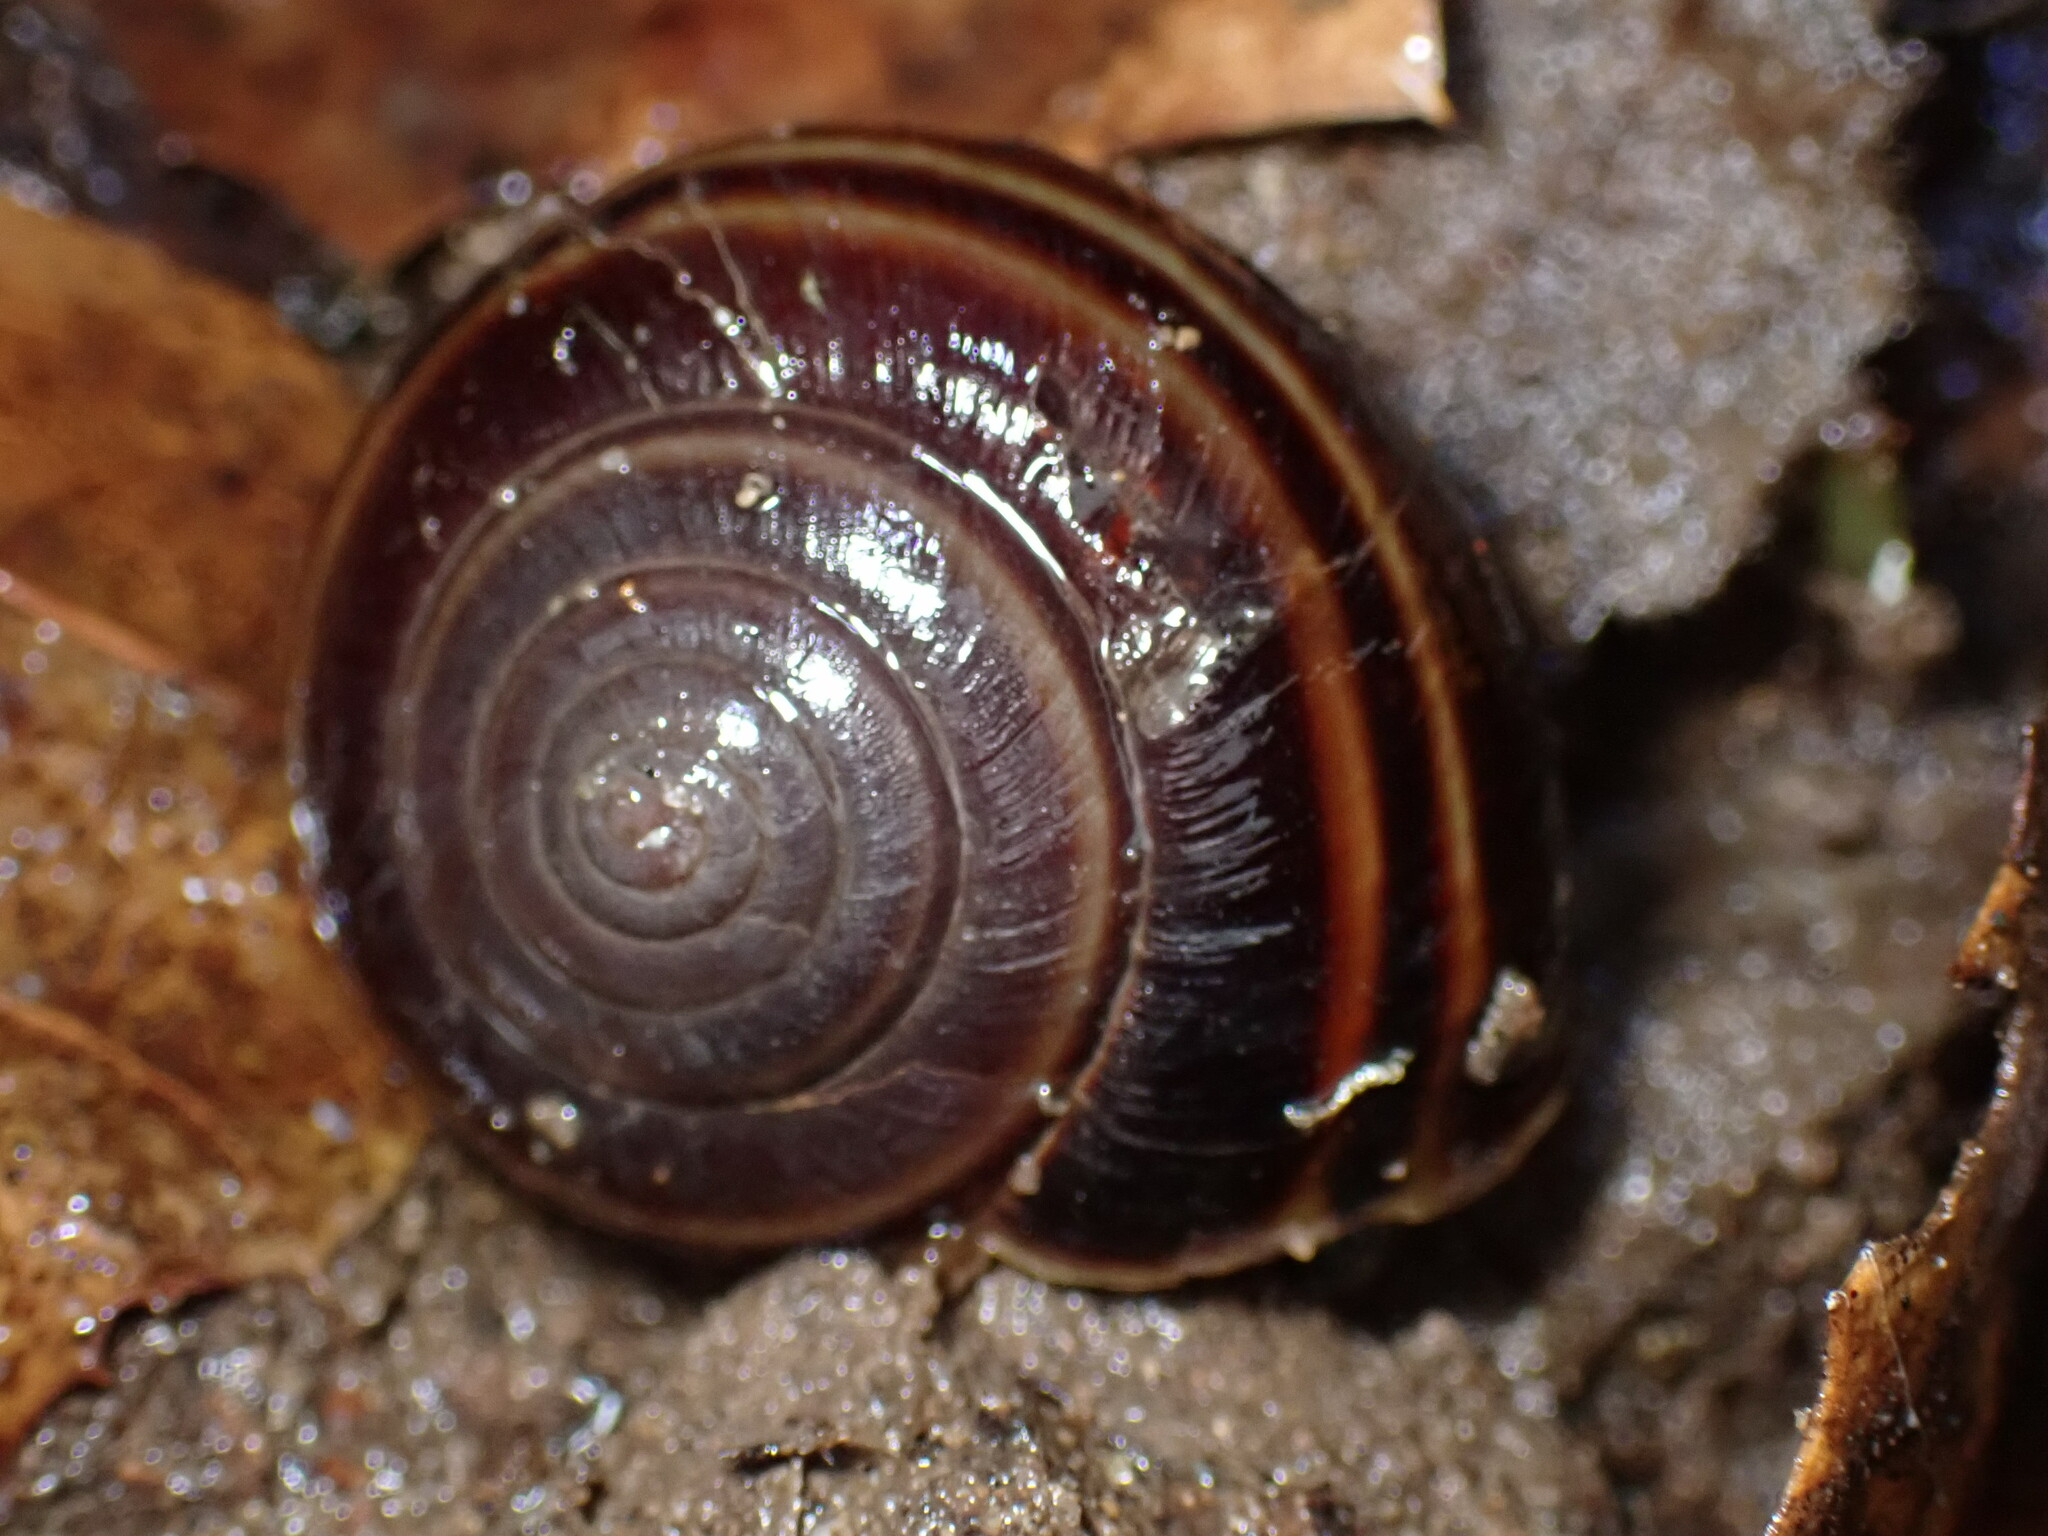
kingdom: Animalia
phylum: Mollusca
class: Gastropoda
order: Stylommatophora
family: Xanthonychidae
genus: Helminthoglypta
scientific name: Helminthoglypta sequoicola
